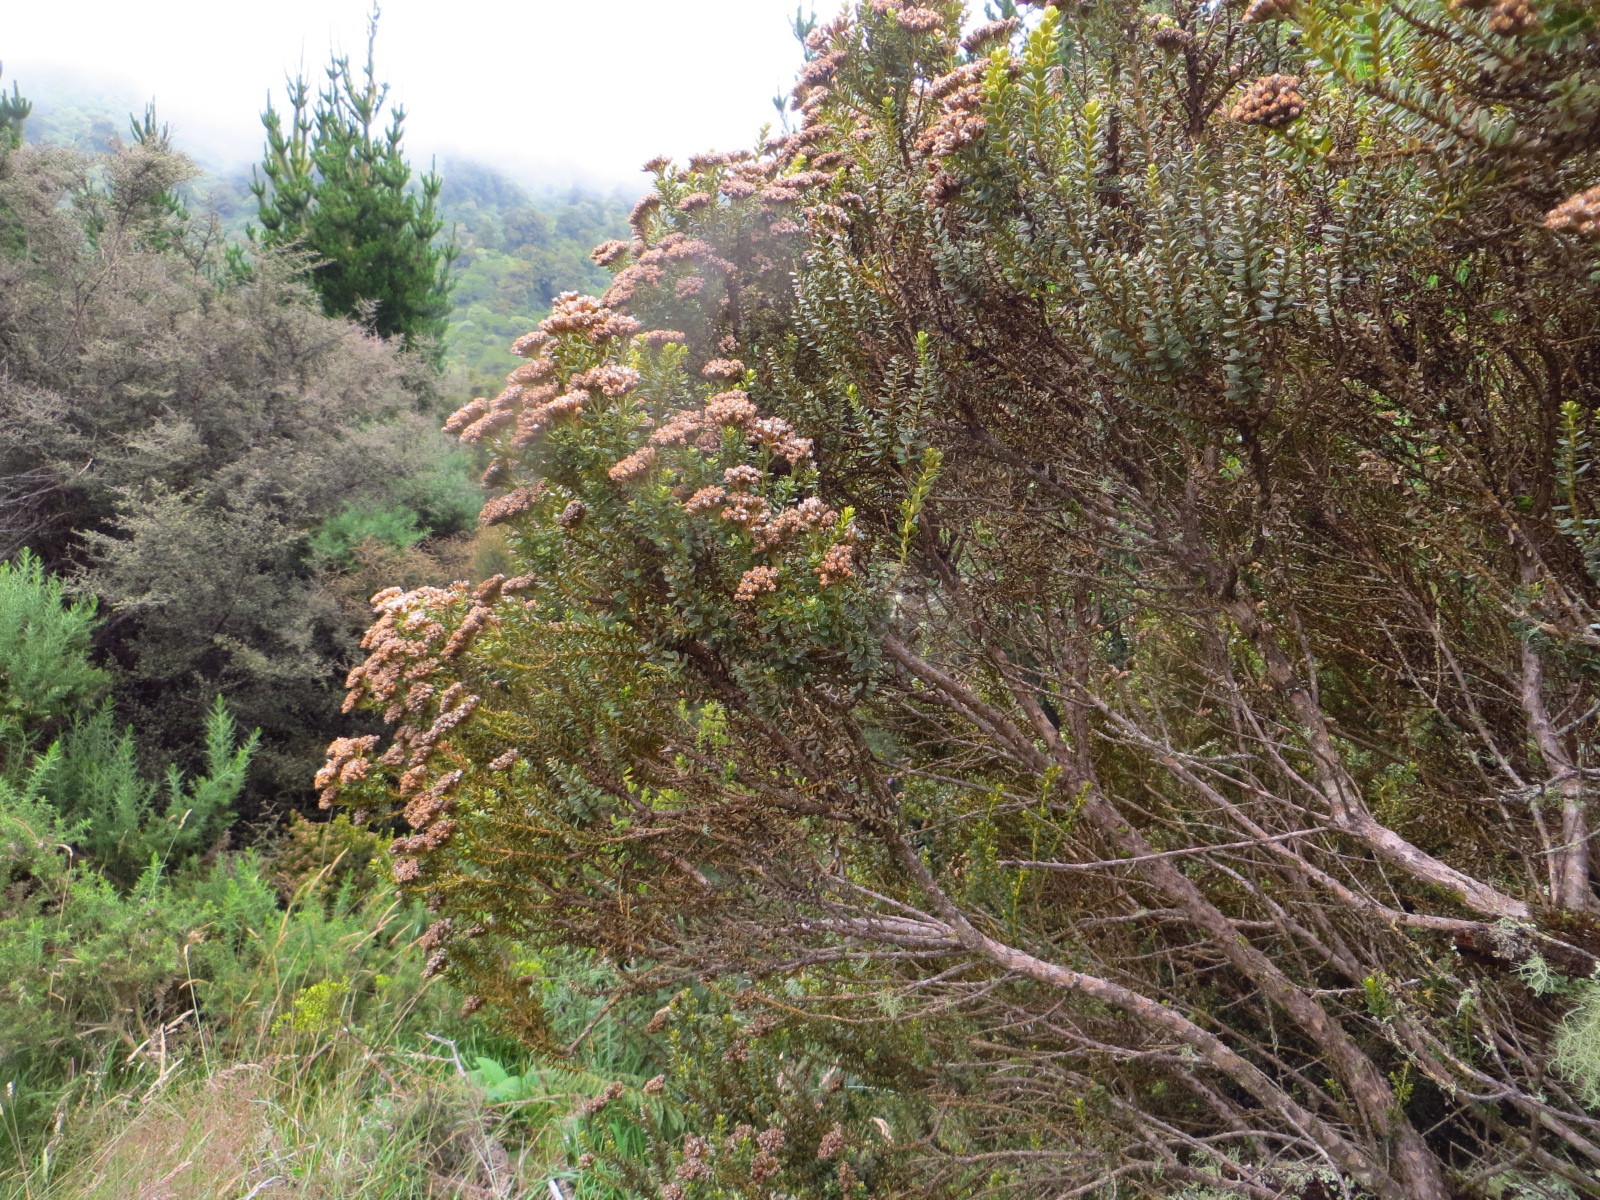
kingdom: Plantae
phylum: Tracheophyta
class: Magnoliopsida
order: Asterales
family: Asteraceae
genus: Ozothamnus
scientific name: Ozothamnus leptophyllus
